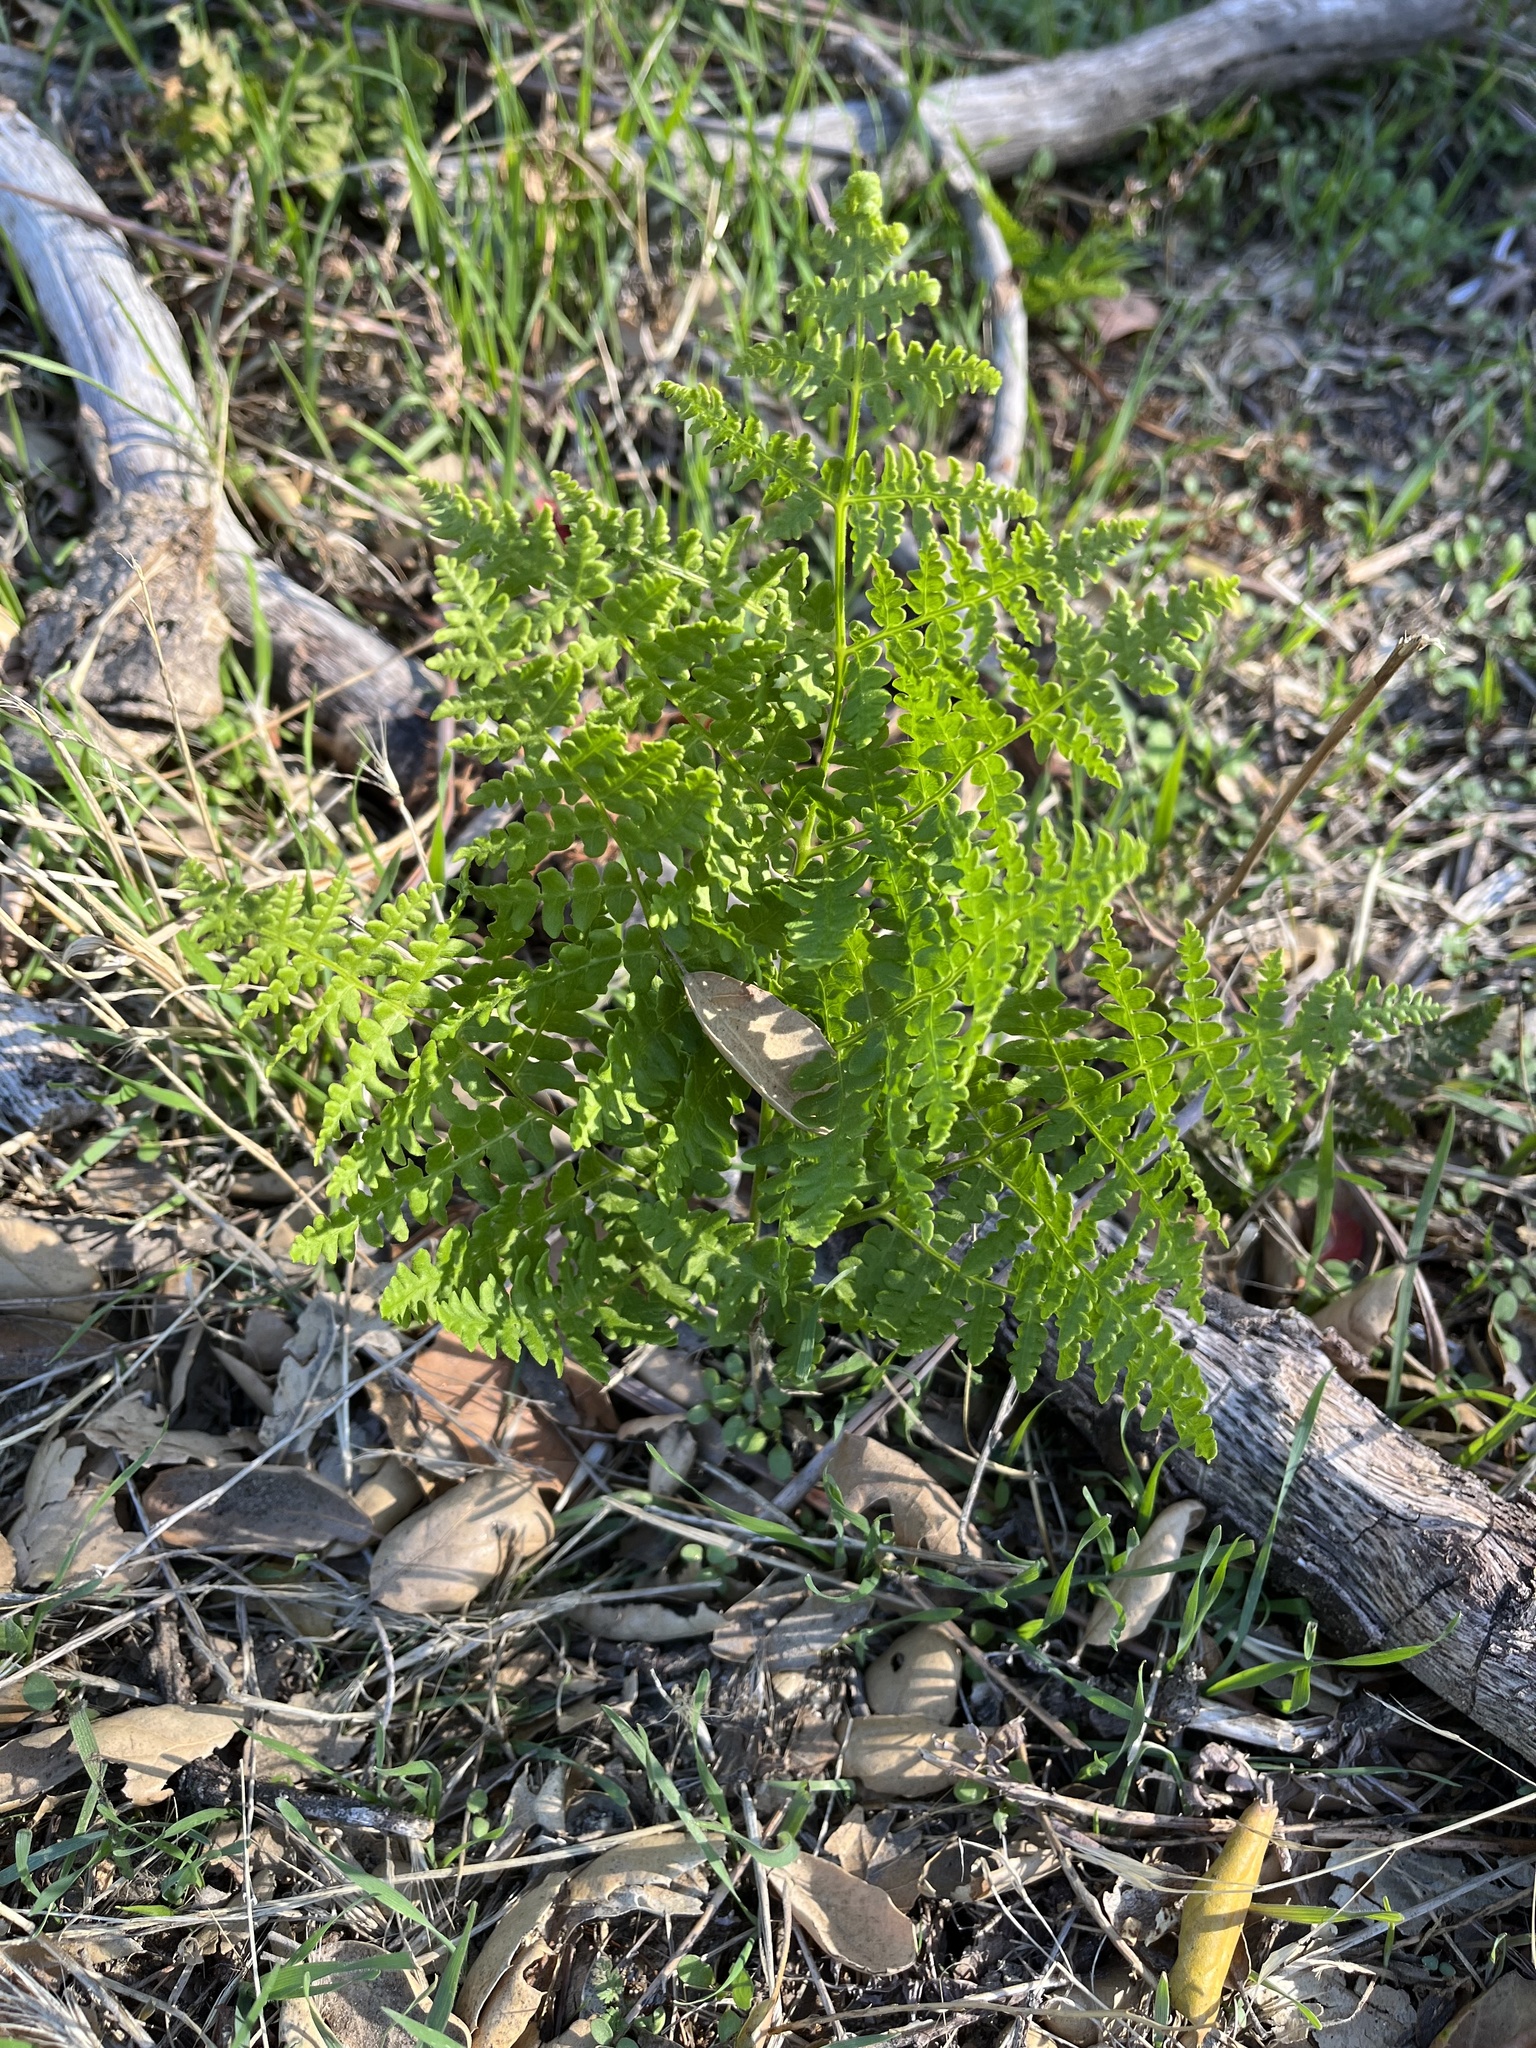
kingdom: Plantae
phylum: Tracheophyta
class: Polypodiopsida
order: Polypodiales
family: Dennstaedtiaceae
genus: Pteridium
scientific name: Pteridium aquilinum
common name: Bracken
